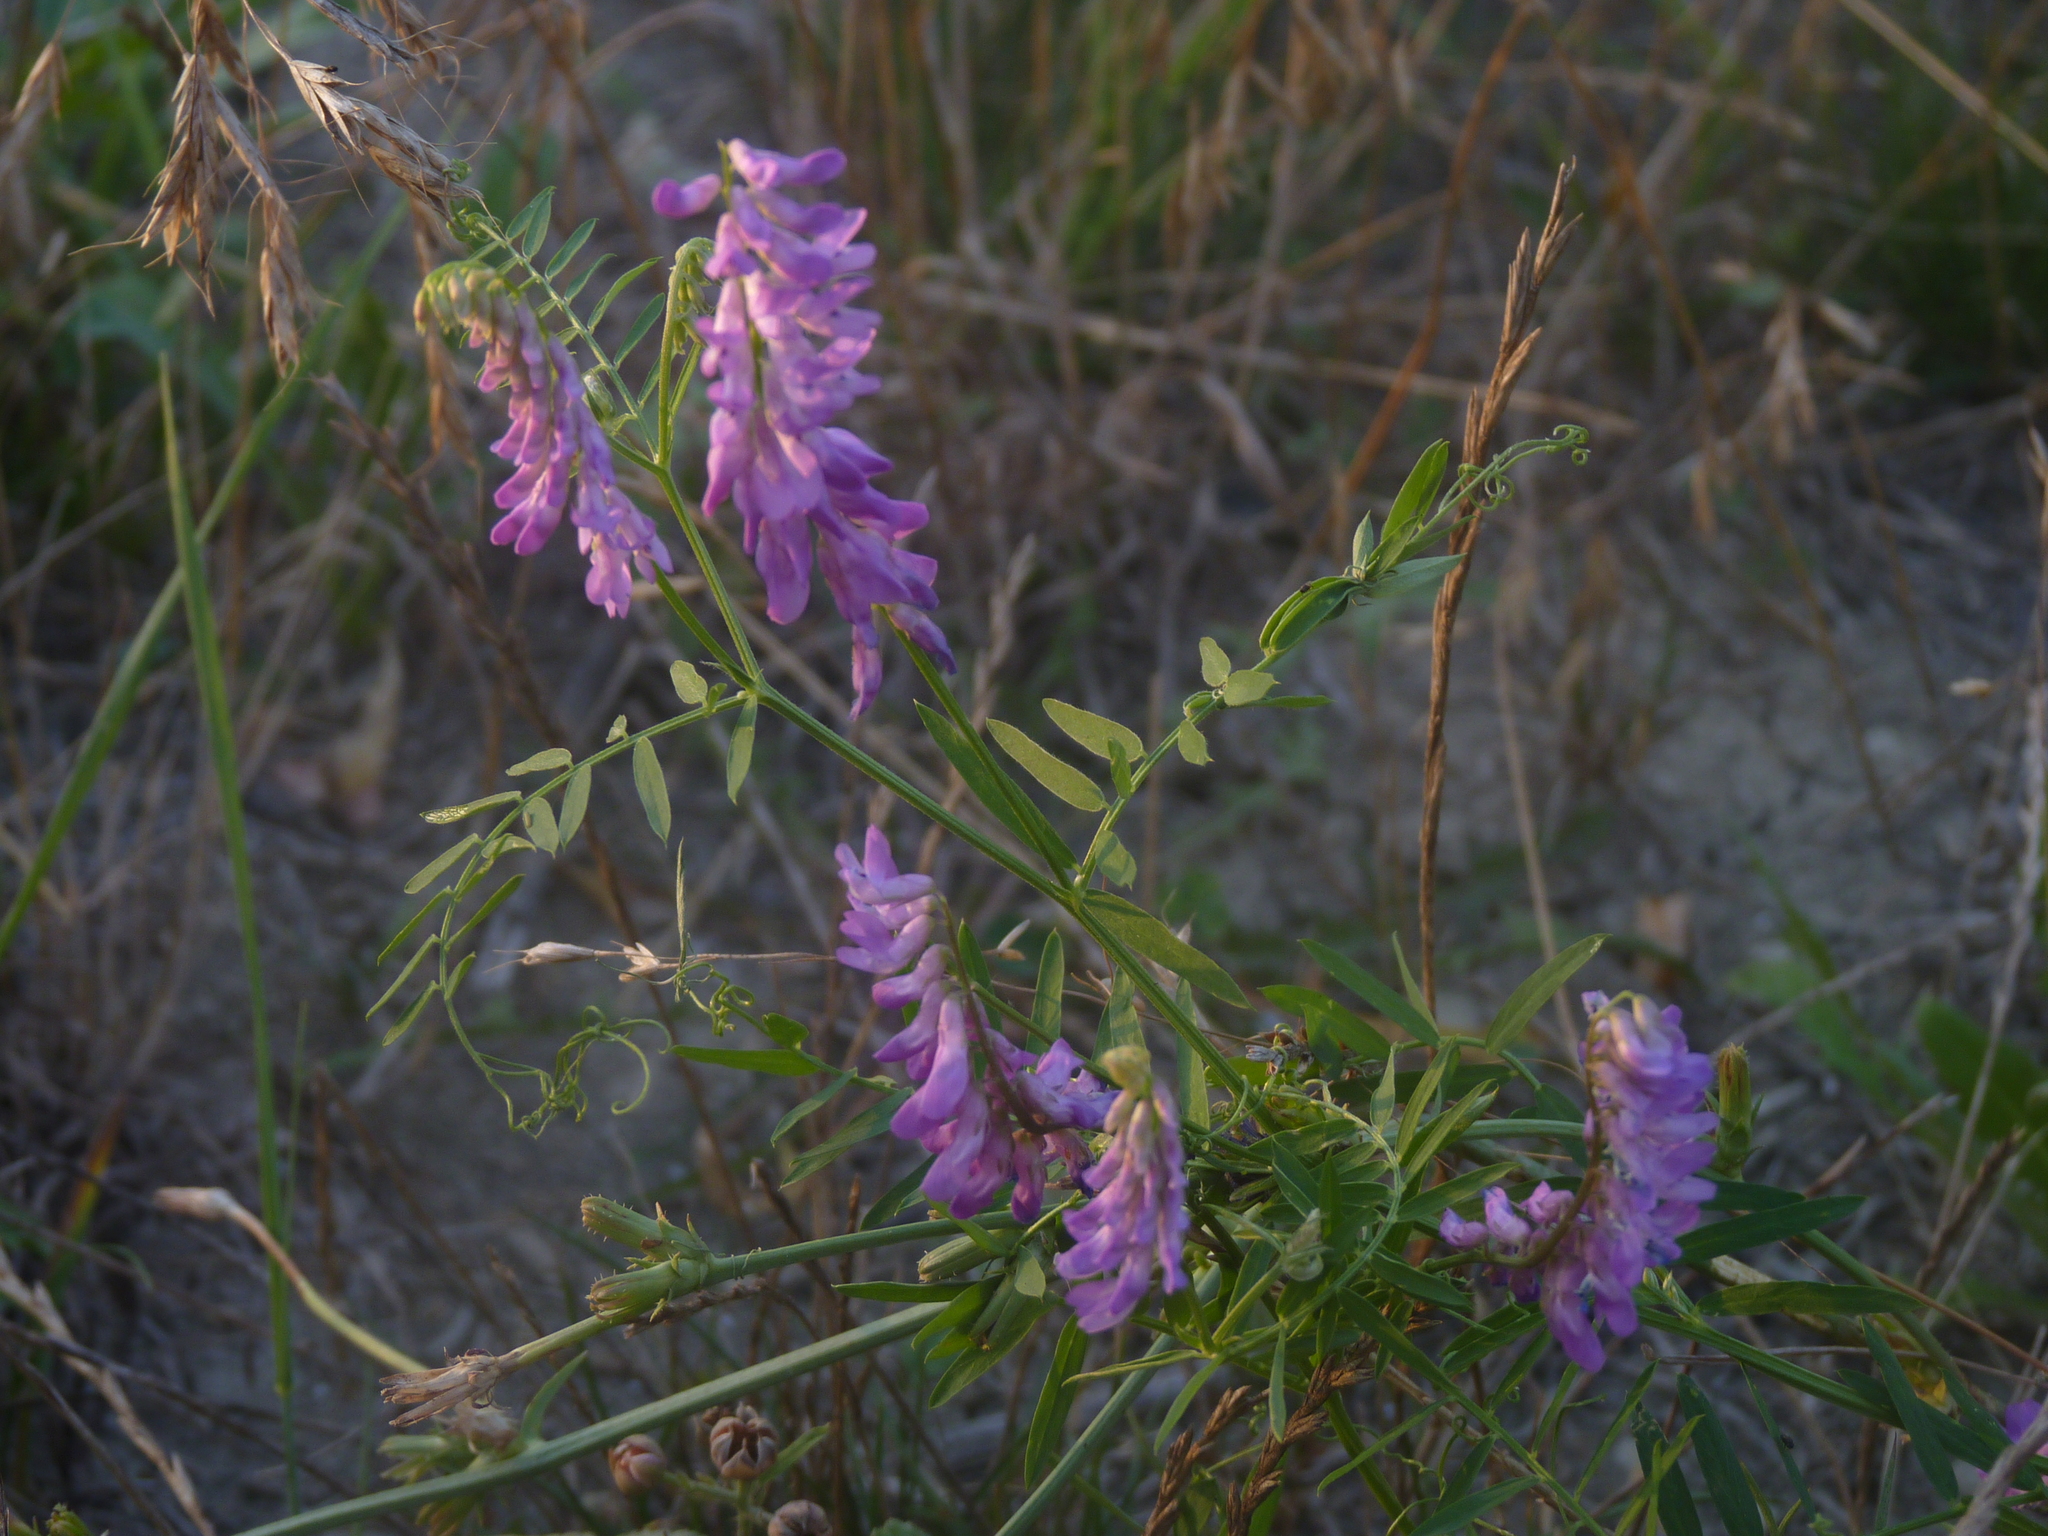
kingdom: Plantae
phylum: Tracheophyta
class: Magnoliopsida
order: Fabales
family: Fabaceae
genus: Vicia
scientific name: Vicia cracca
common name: Bird vetch
